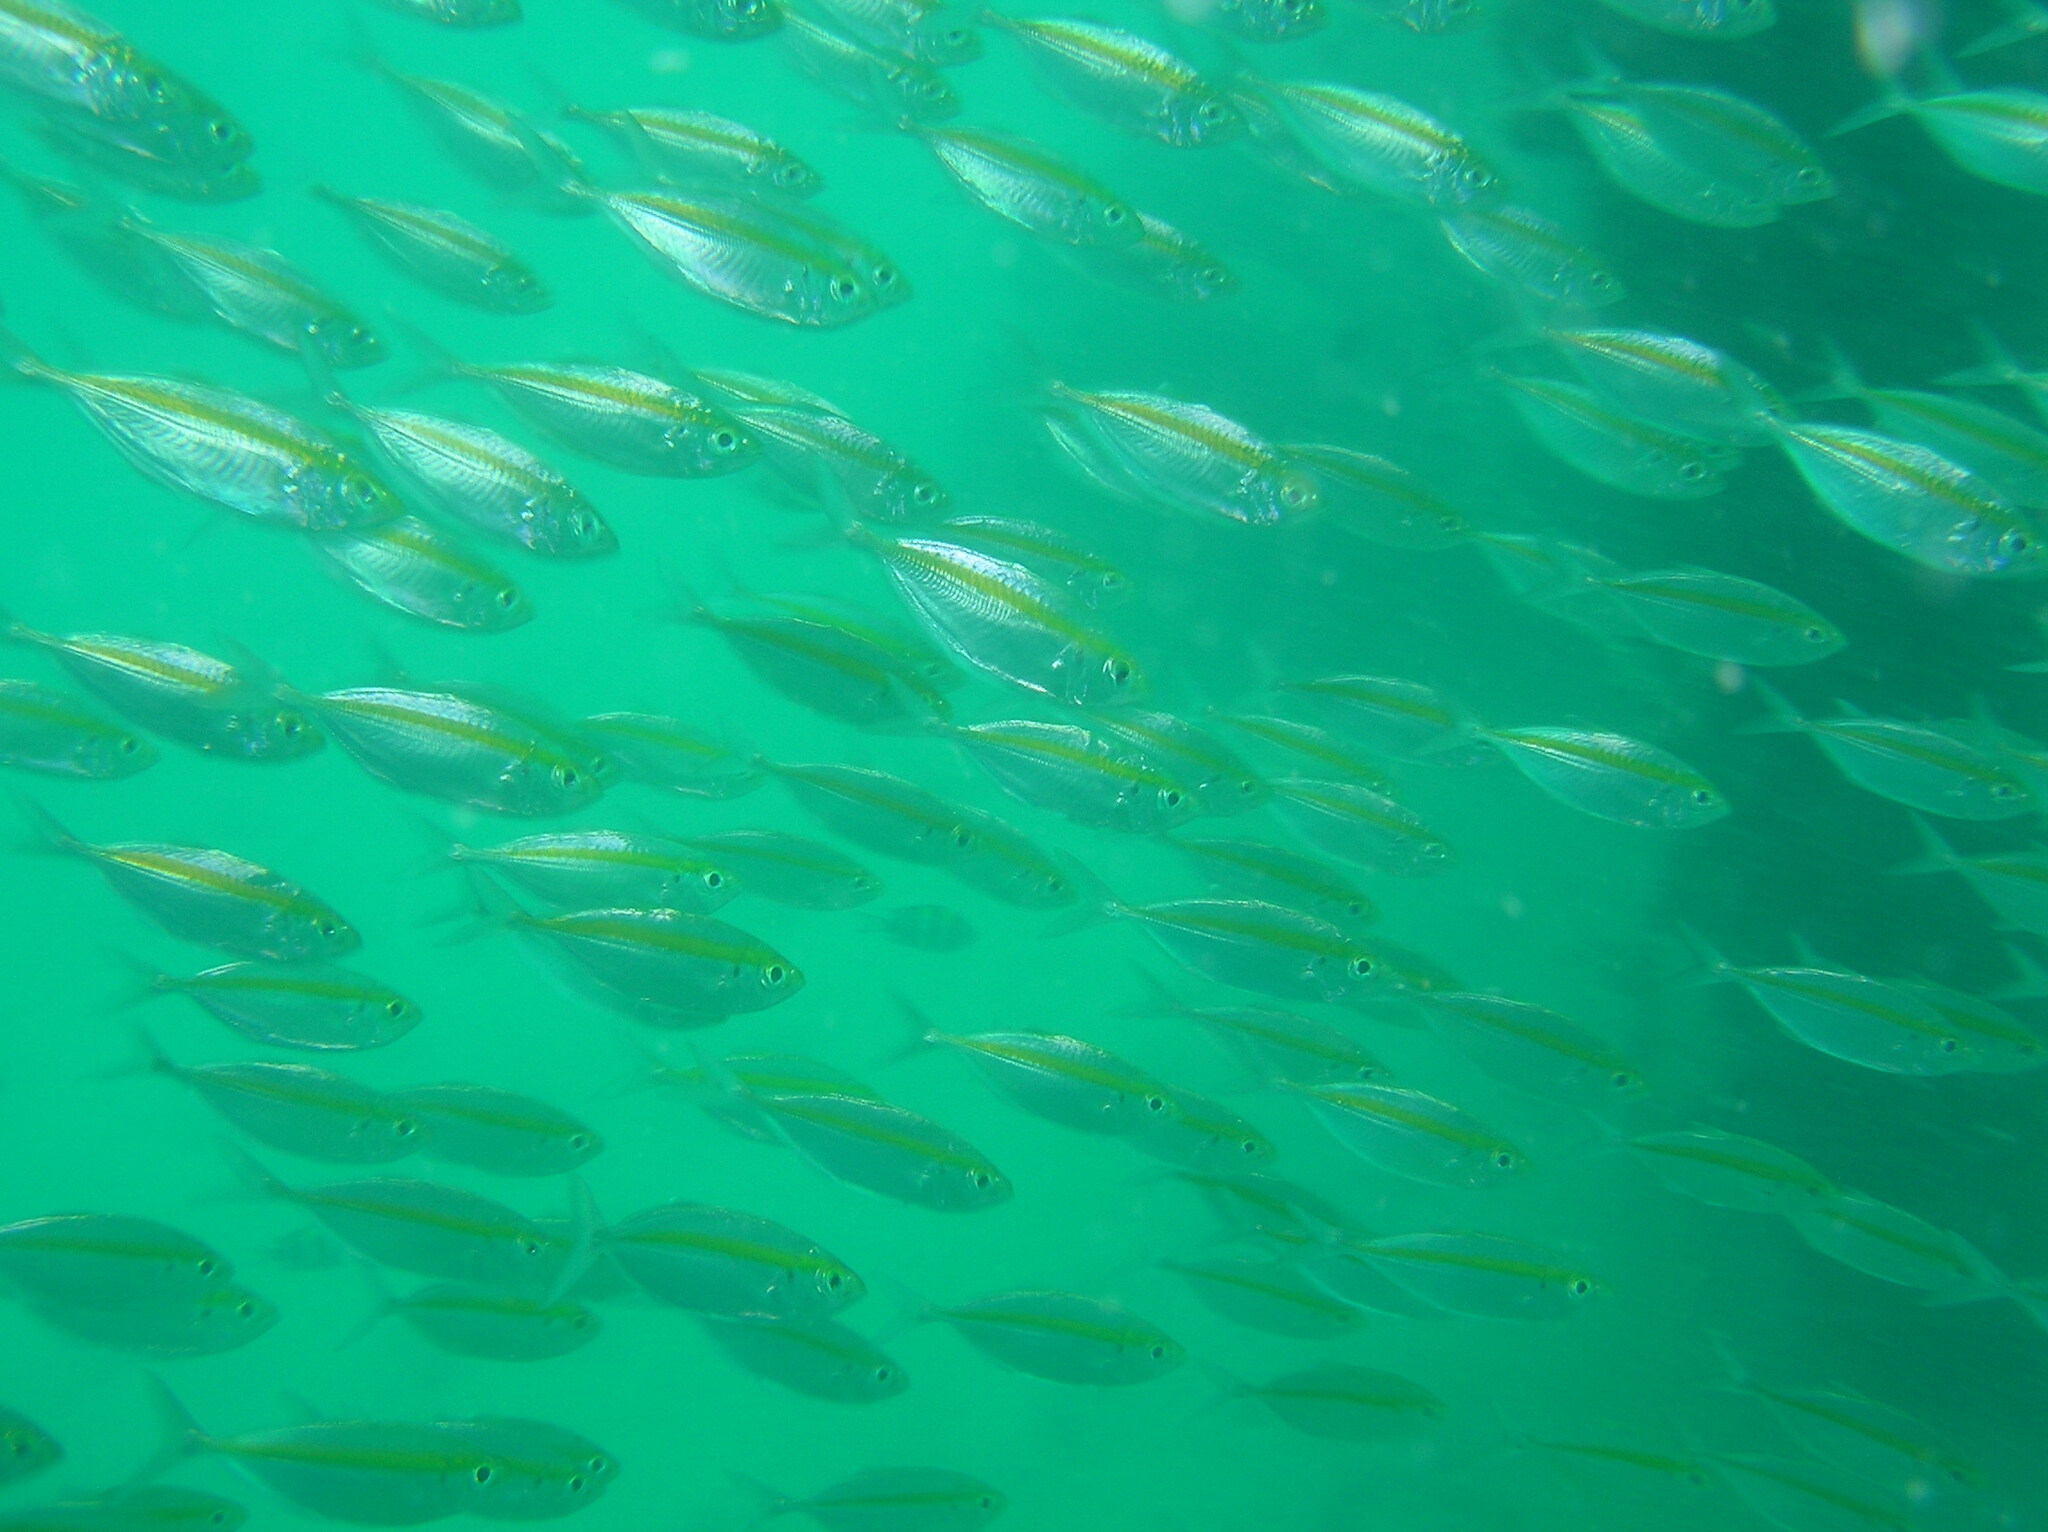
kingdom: Animalia
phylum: Chordata
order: Perciformes
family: Carangidae
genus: Selar
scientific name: Selar boops
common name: Oxeye scad
